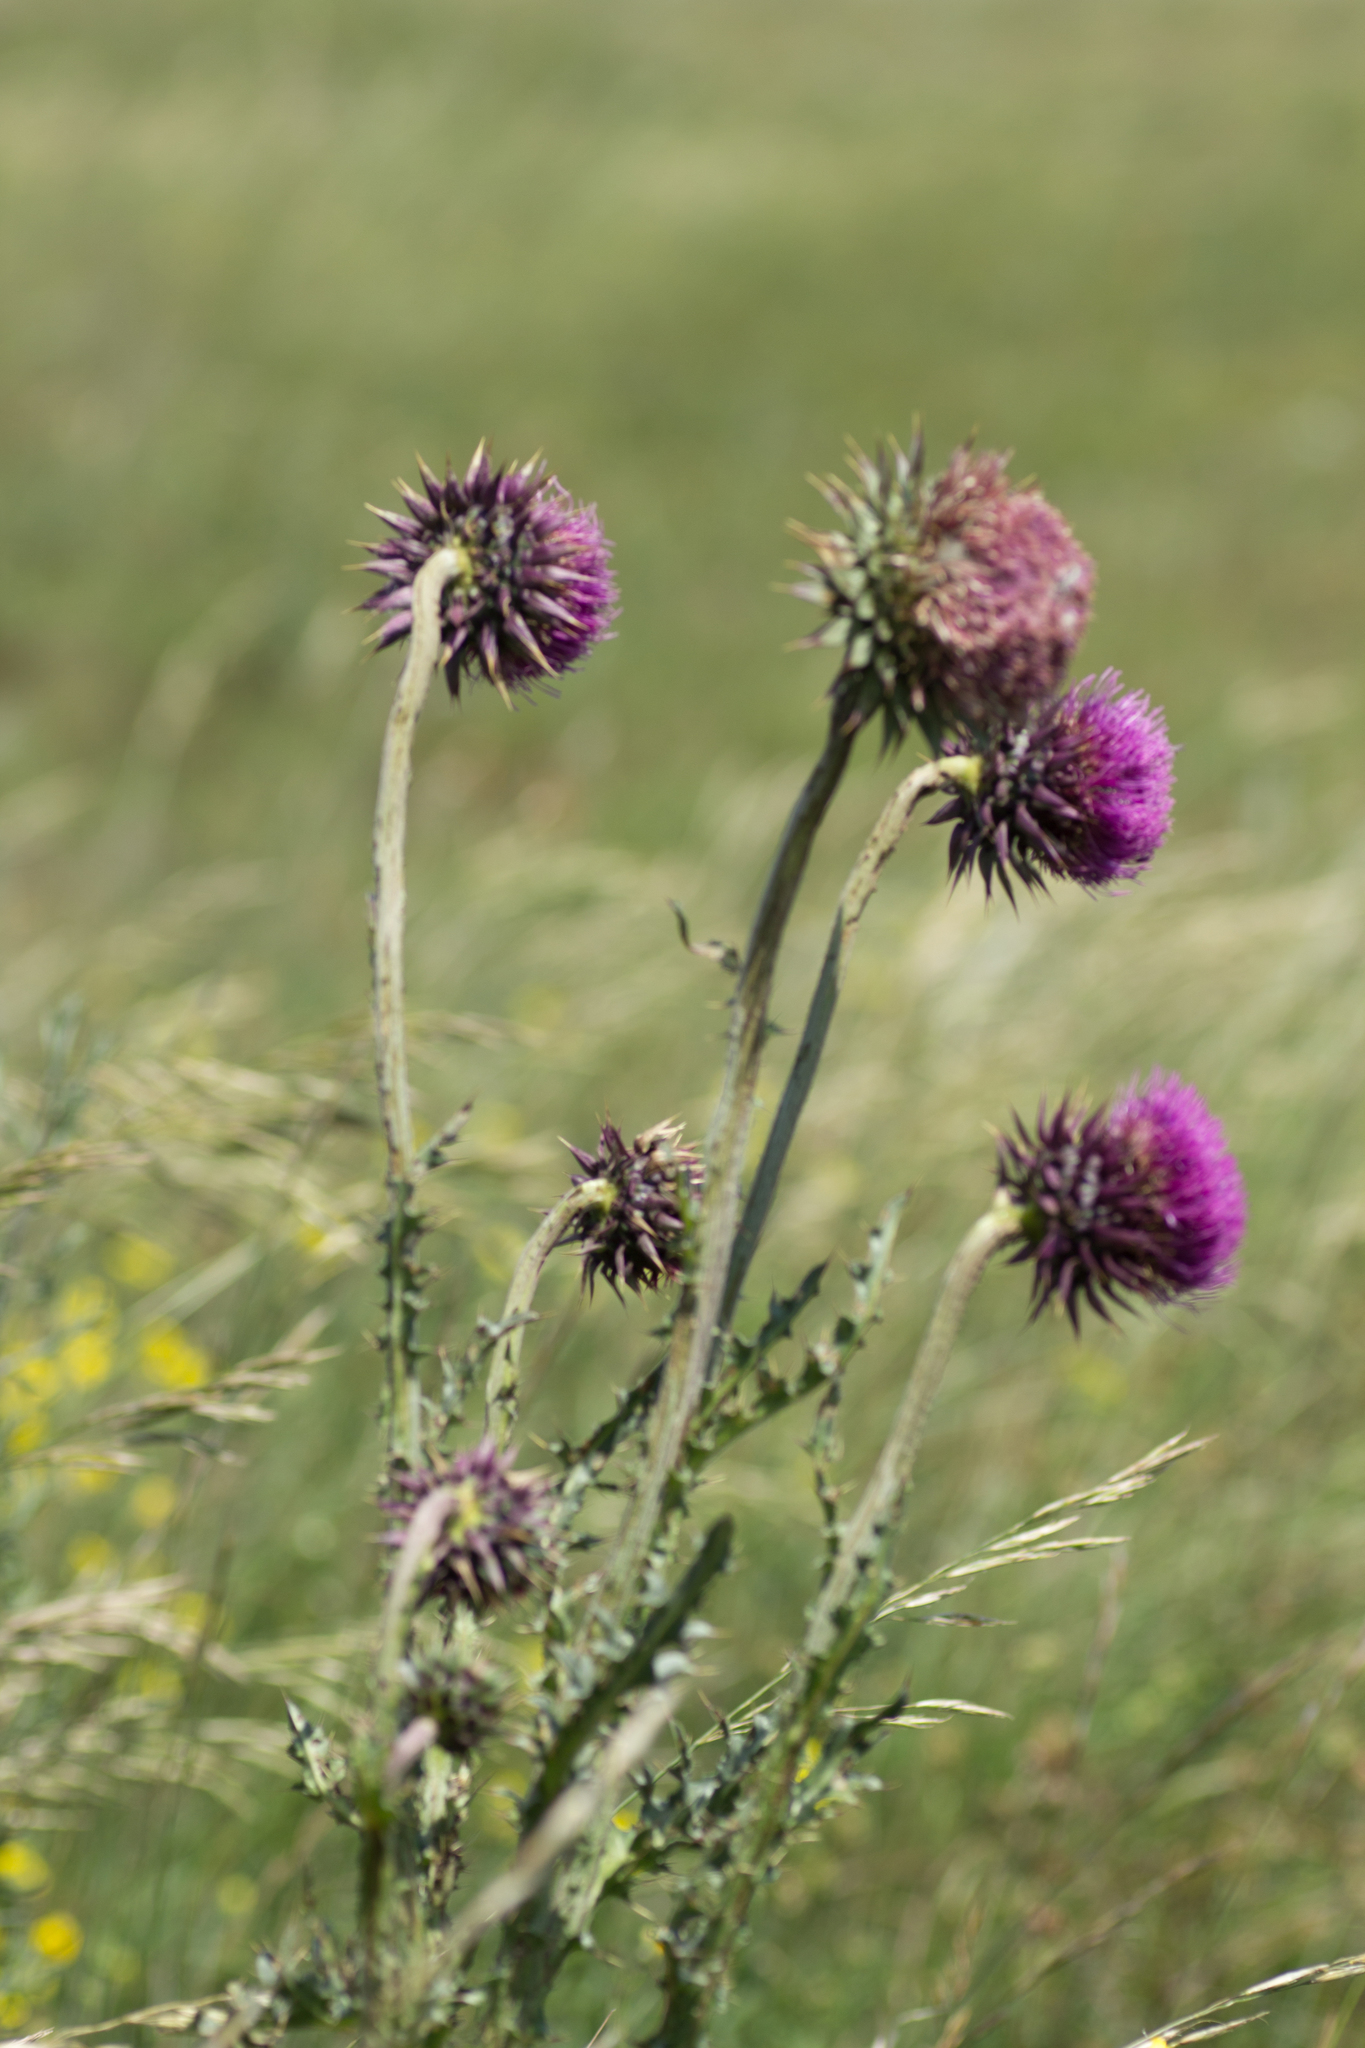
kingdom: Plantae
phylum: Tracheophyta
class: Magnoliopsida
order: Asterales
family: Asteraceae
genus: Carduus
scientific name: Carduus nutans
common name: Musk thistle
